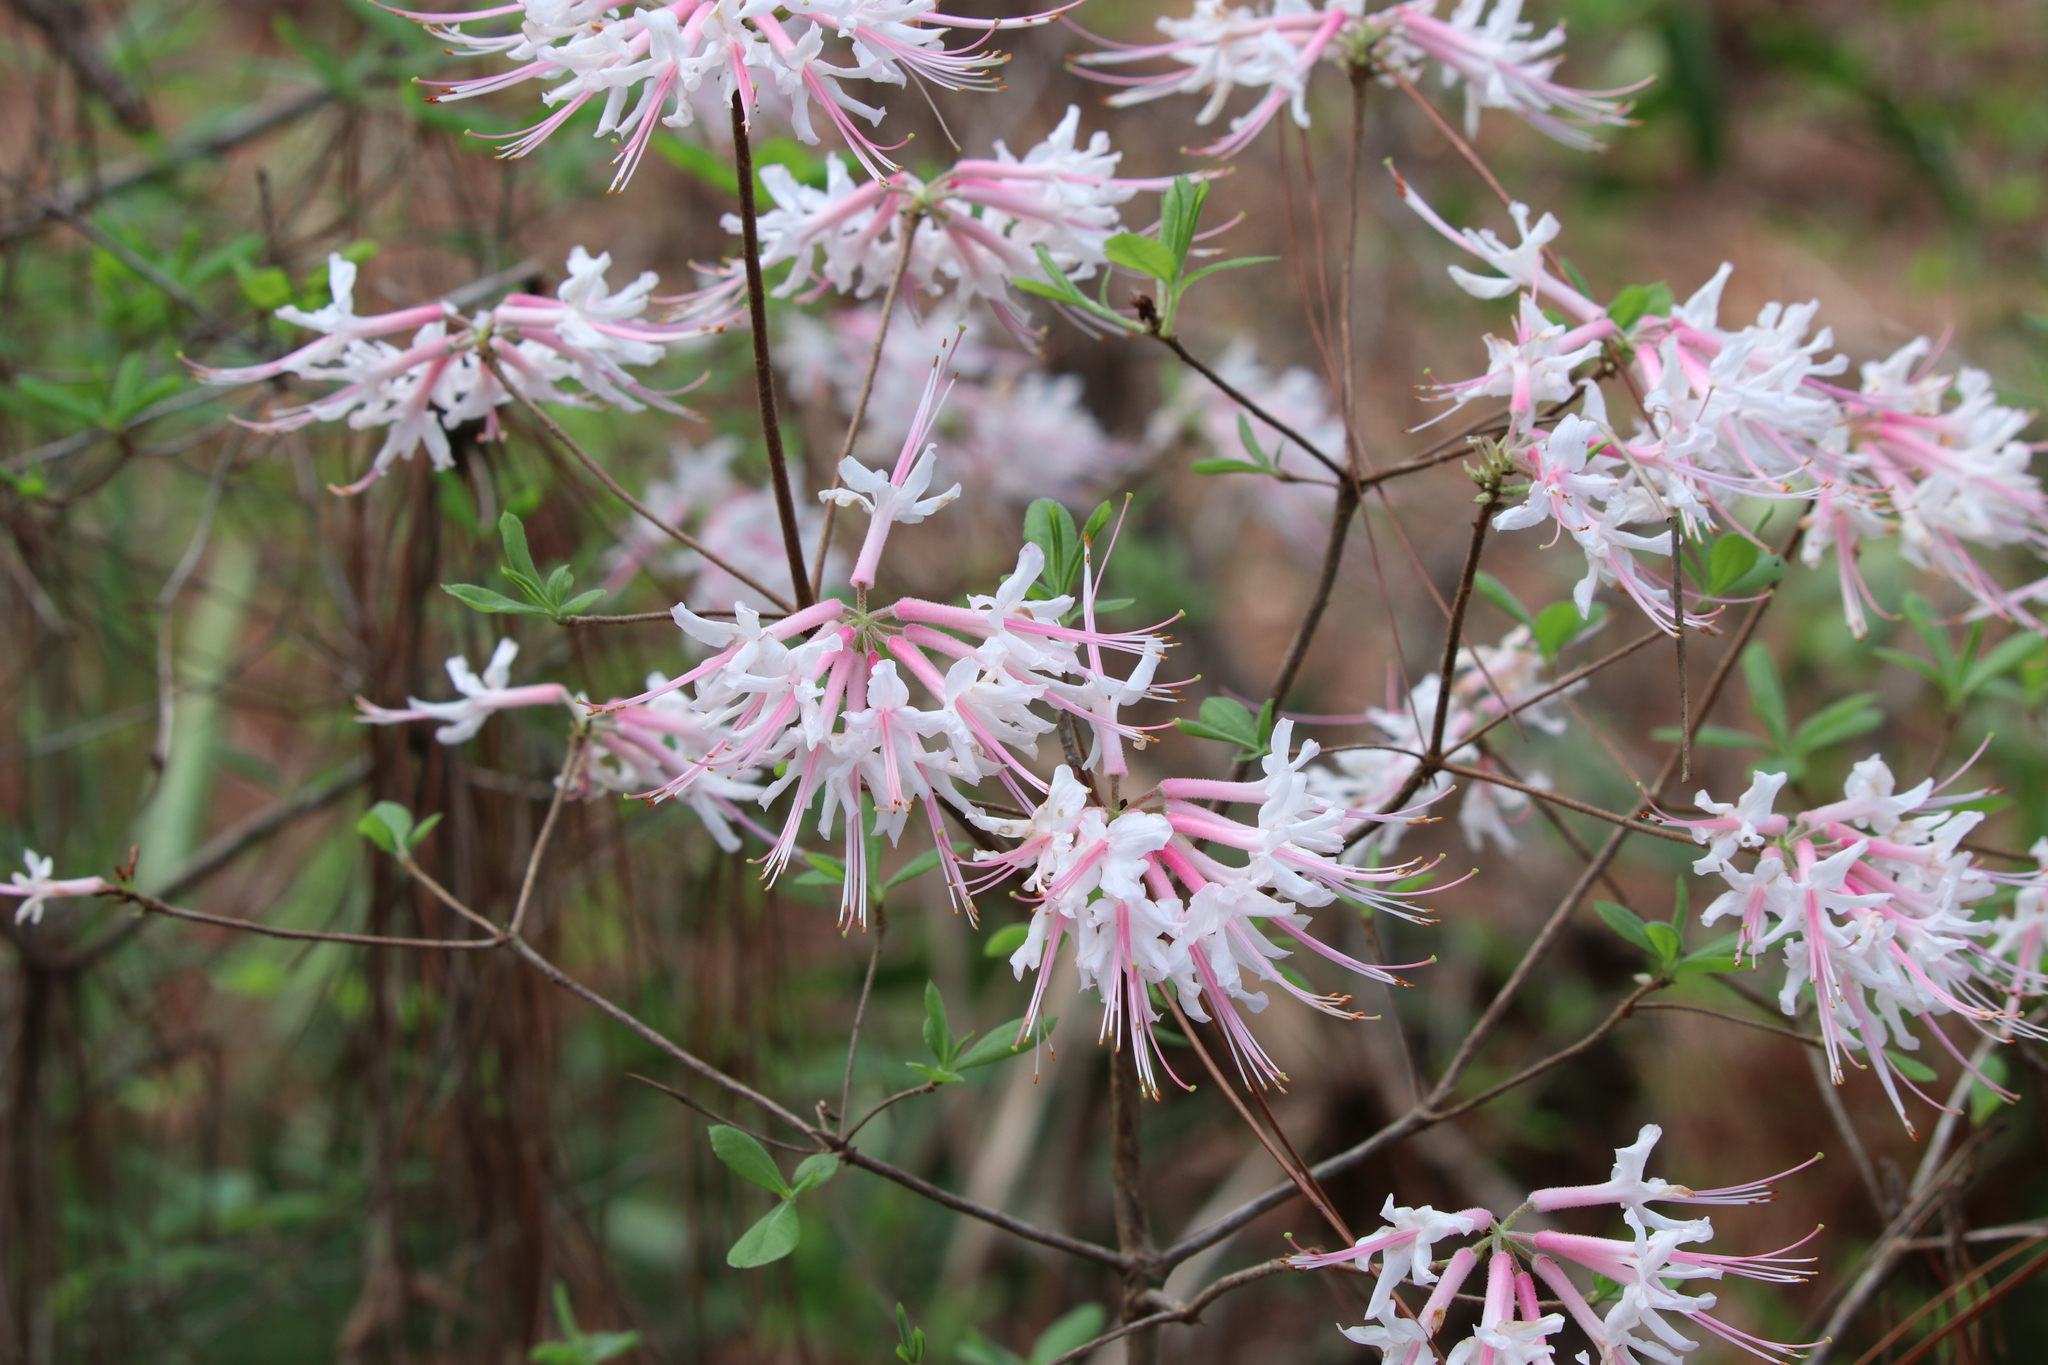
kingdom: Plantae
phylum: Tracheophyta
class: Magnoliopsida
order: Ericales
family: Ericaceae
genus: Rhododendron
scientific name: Rhododendron canescens
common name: Mountain azalea
